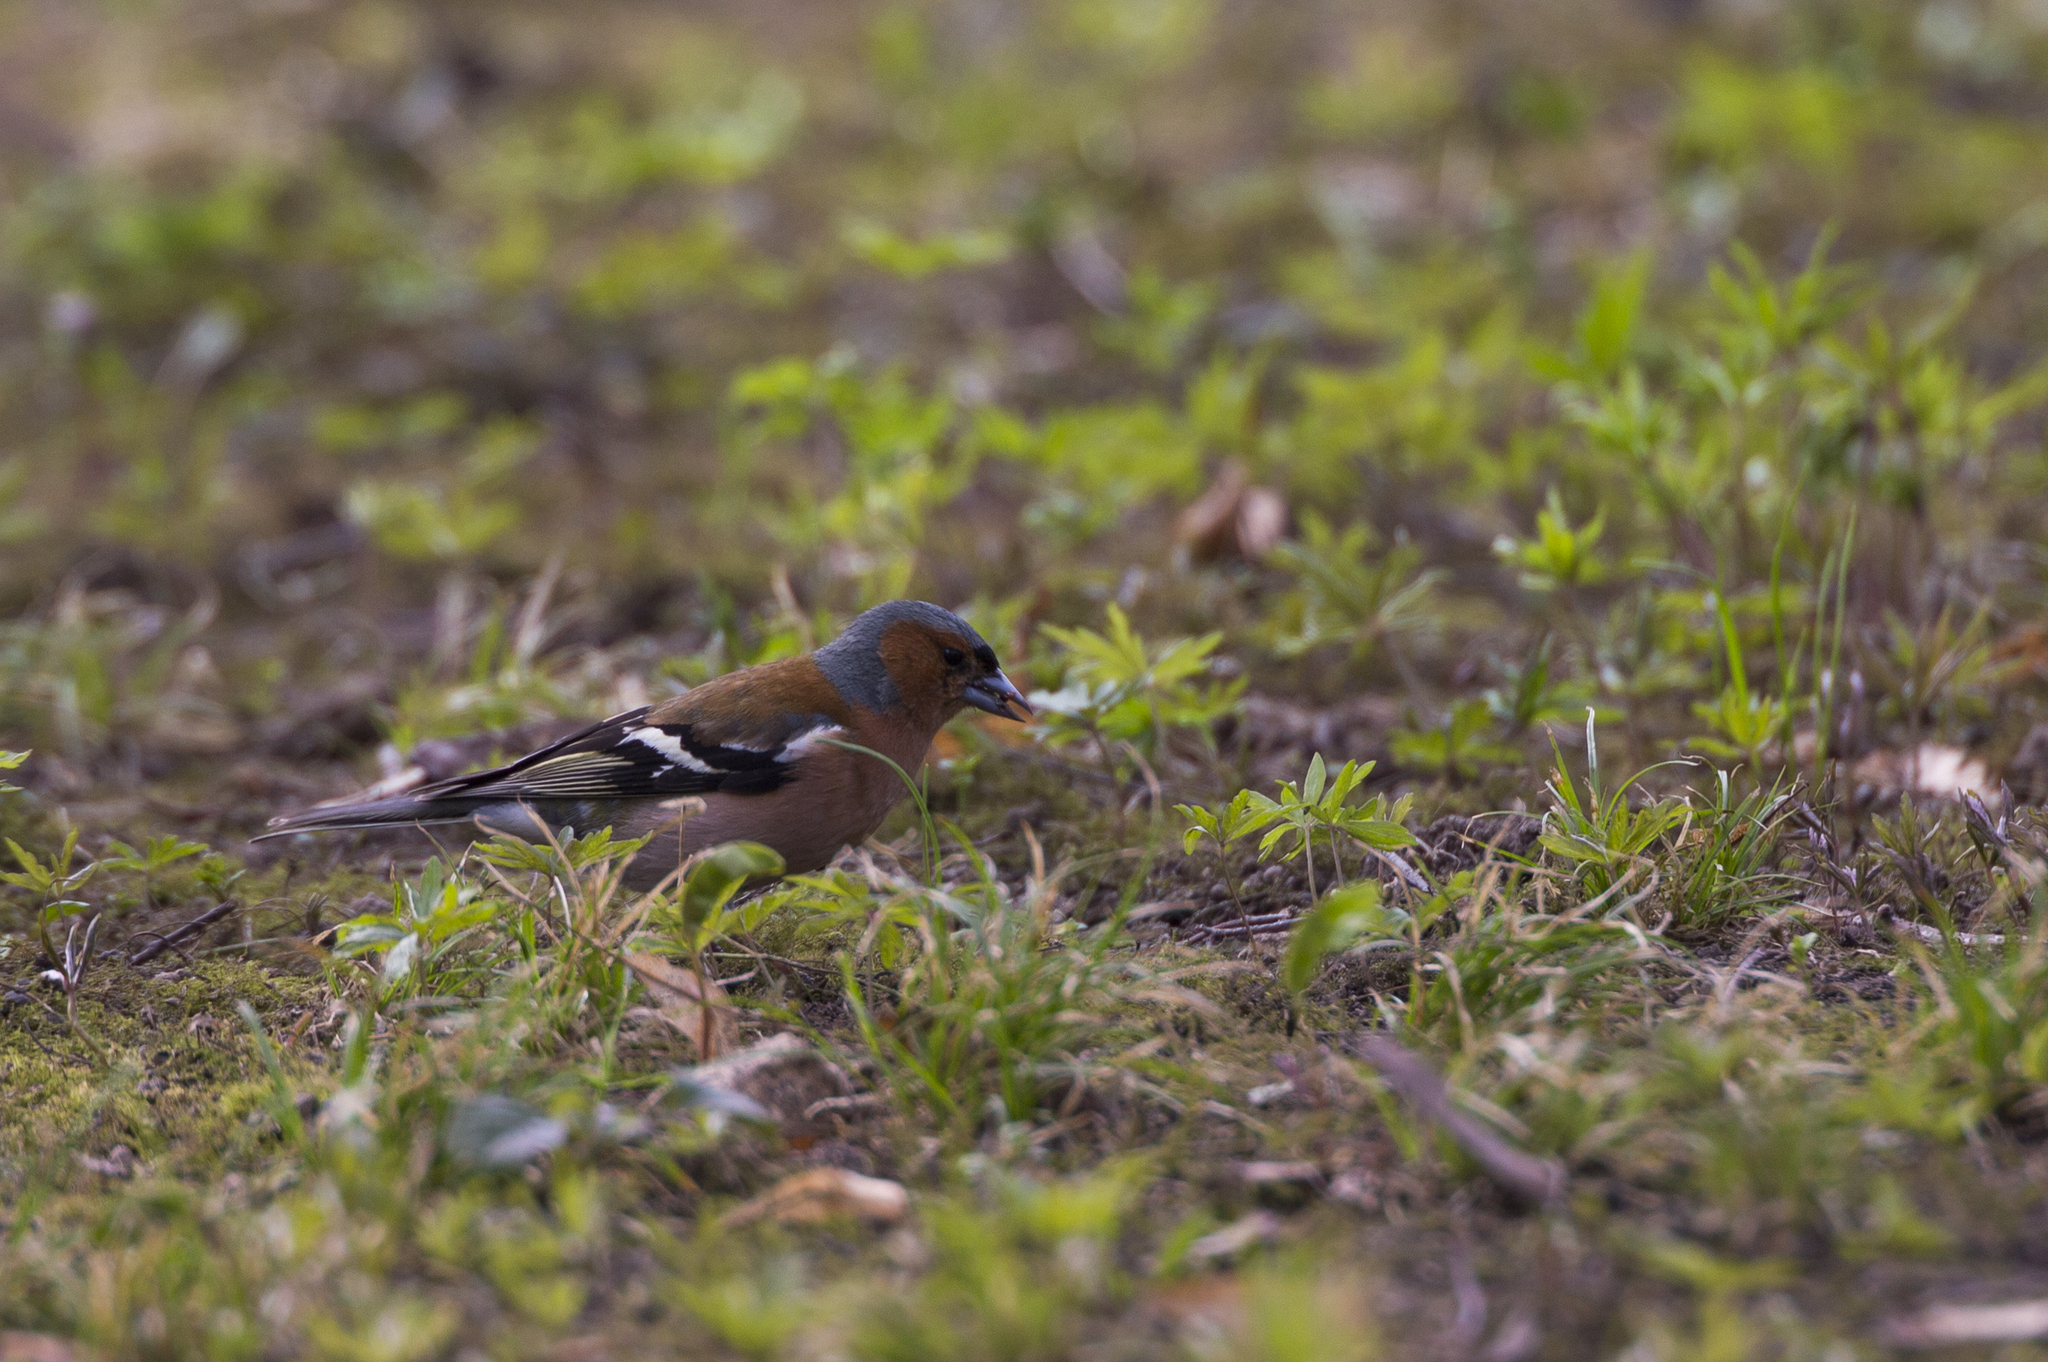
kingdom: Animalia
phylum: Chordata
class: Aves
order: Passeriformes
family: Fringillidae
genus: Fringilla
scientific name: Fringilla coelebs
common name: Common chaffinch
